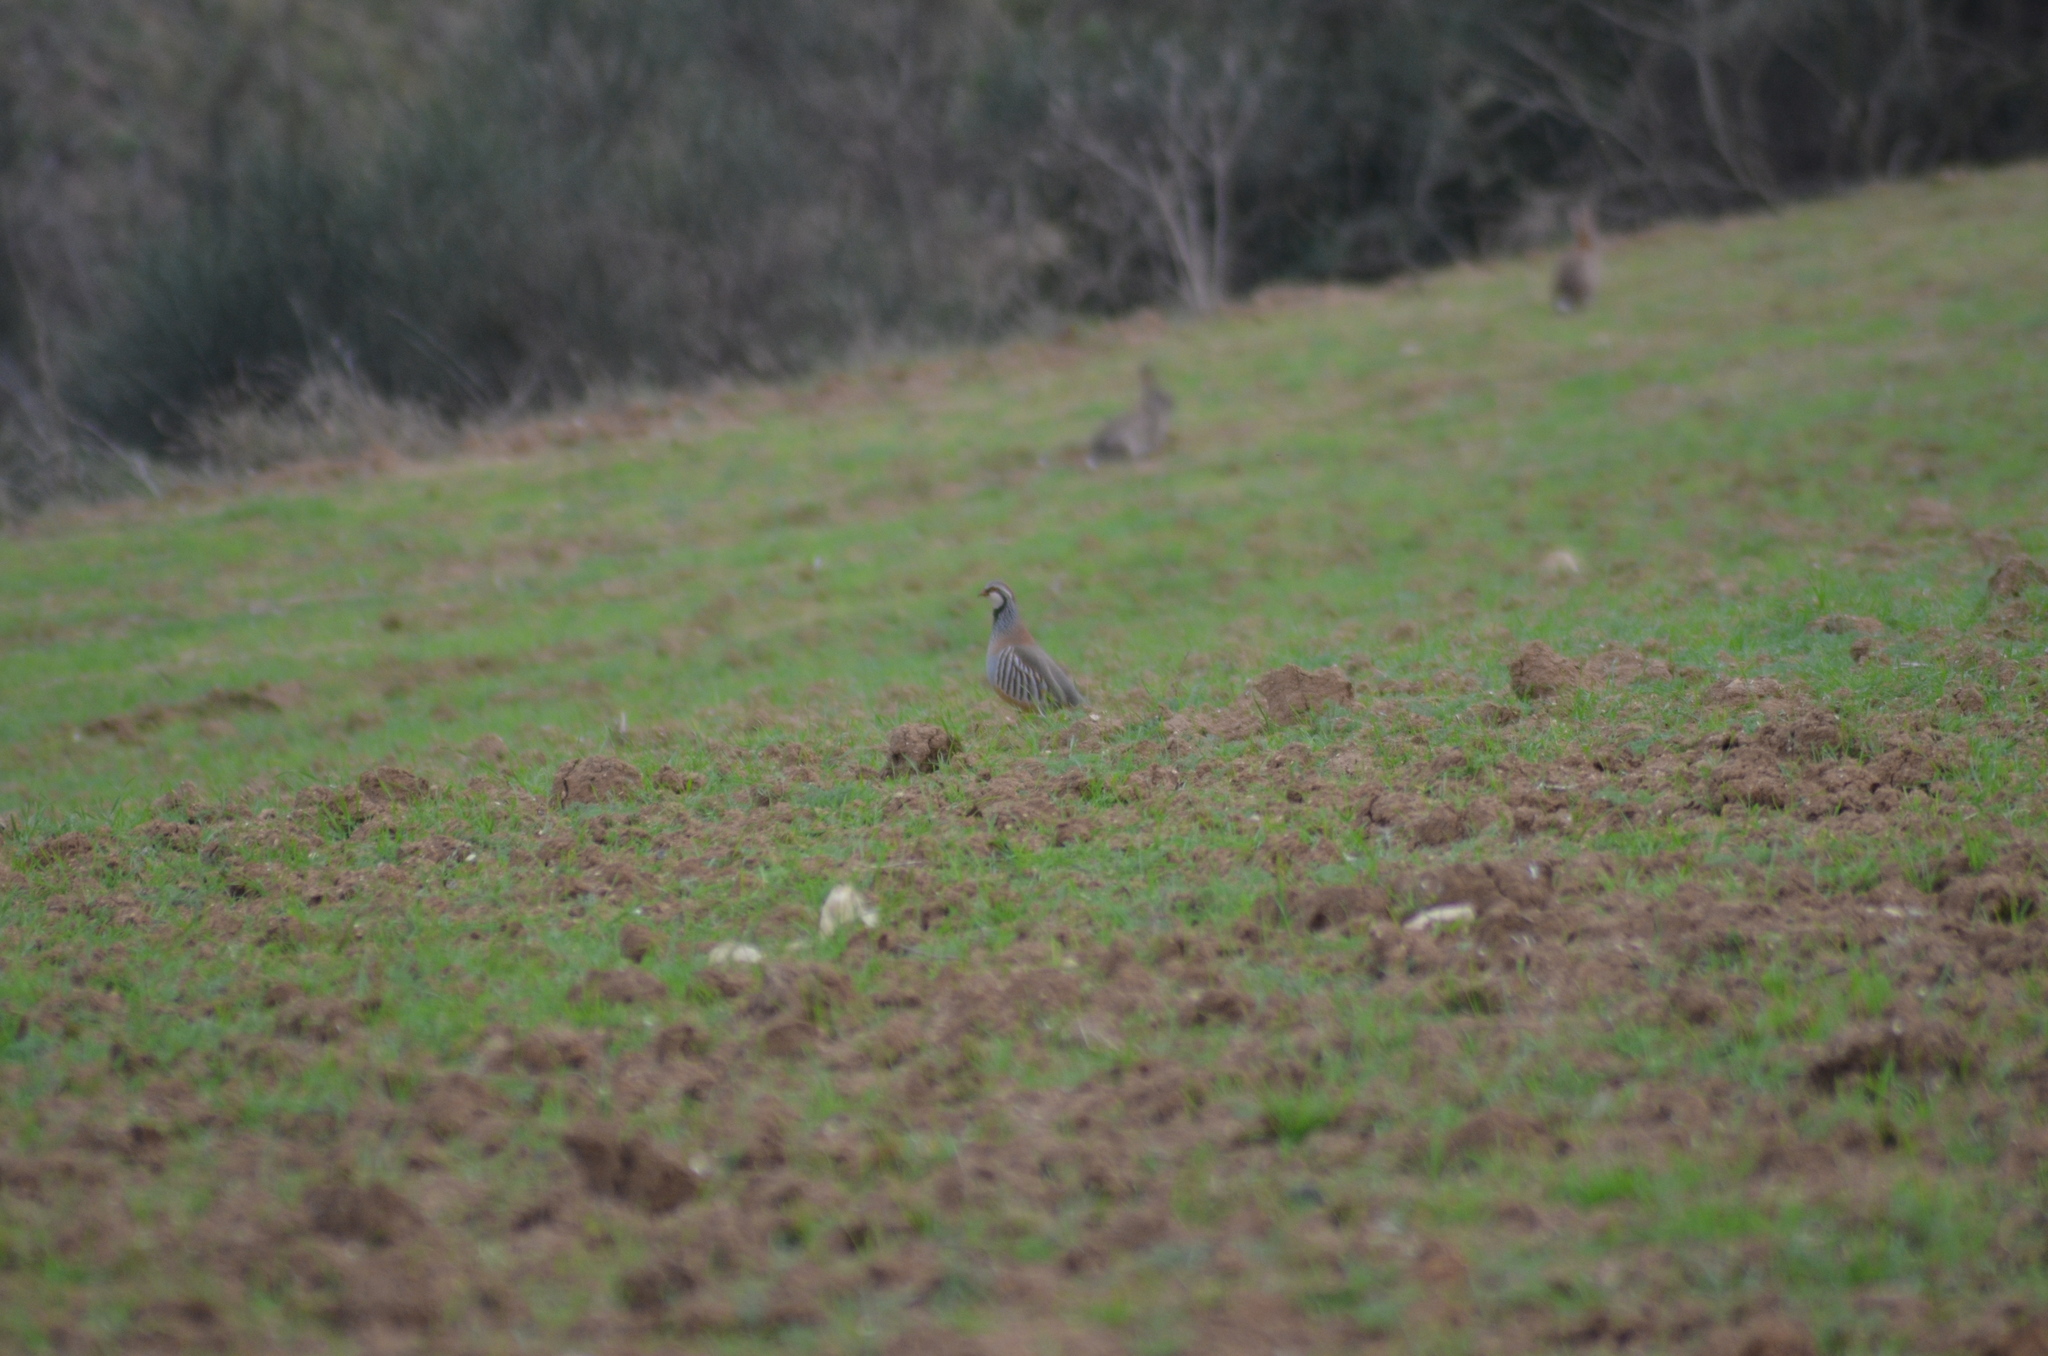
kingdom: Animalia
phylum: Chordata
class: Aves
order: Galliformes
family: Phasianidae
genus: Alectoris
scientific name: Alectoris rufa
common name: Red-legged partridge
